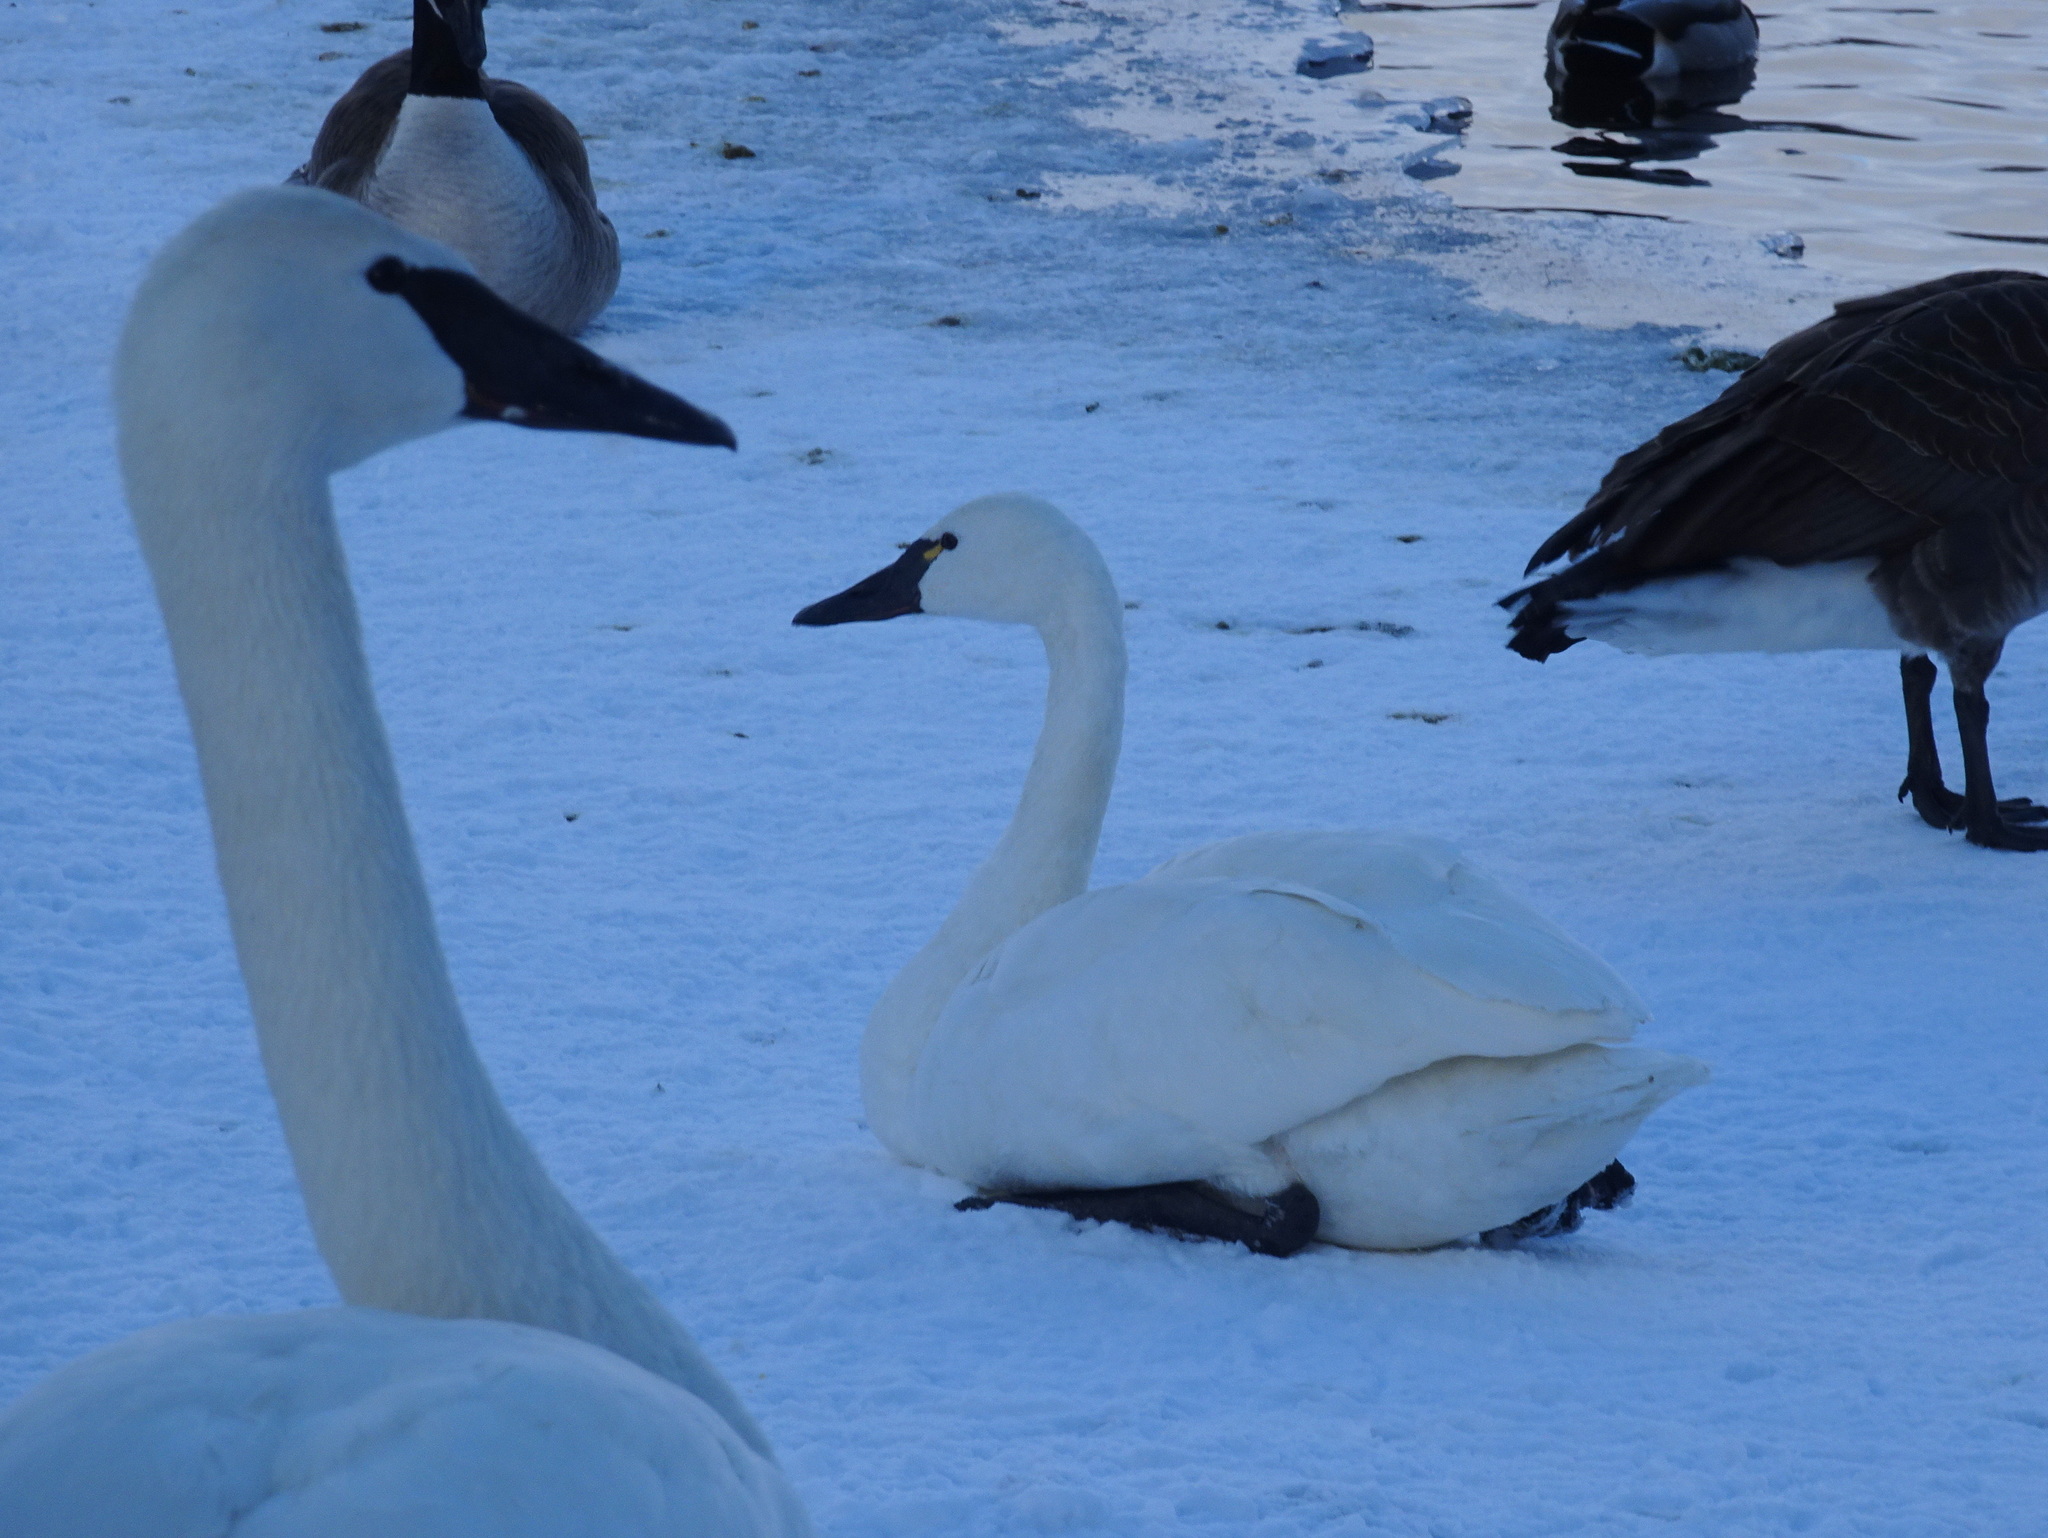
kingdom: Animalia
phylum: Chordata
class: Aves
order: Anseriformes
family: Anatidae
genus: Cygnus
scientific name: Cygnus columbianus
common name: Tundra swan
